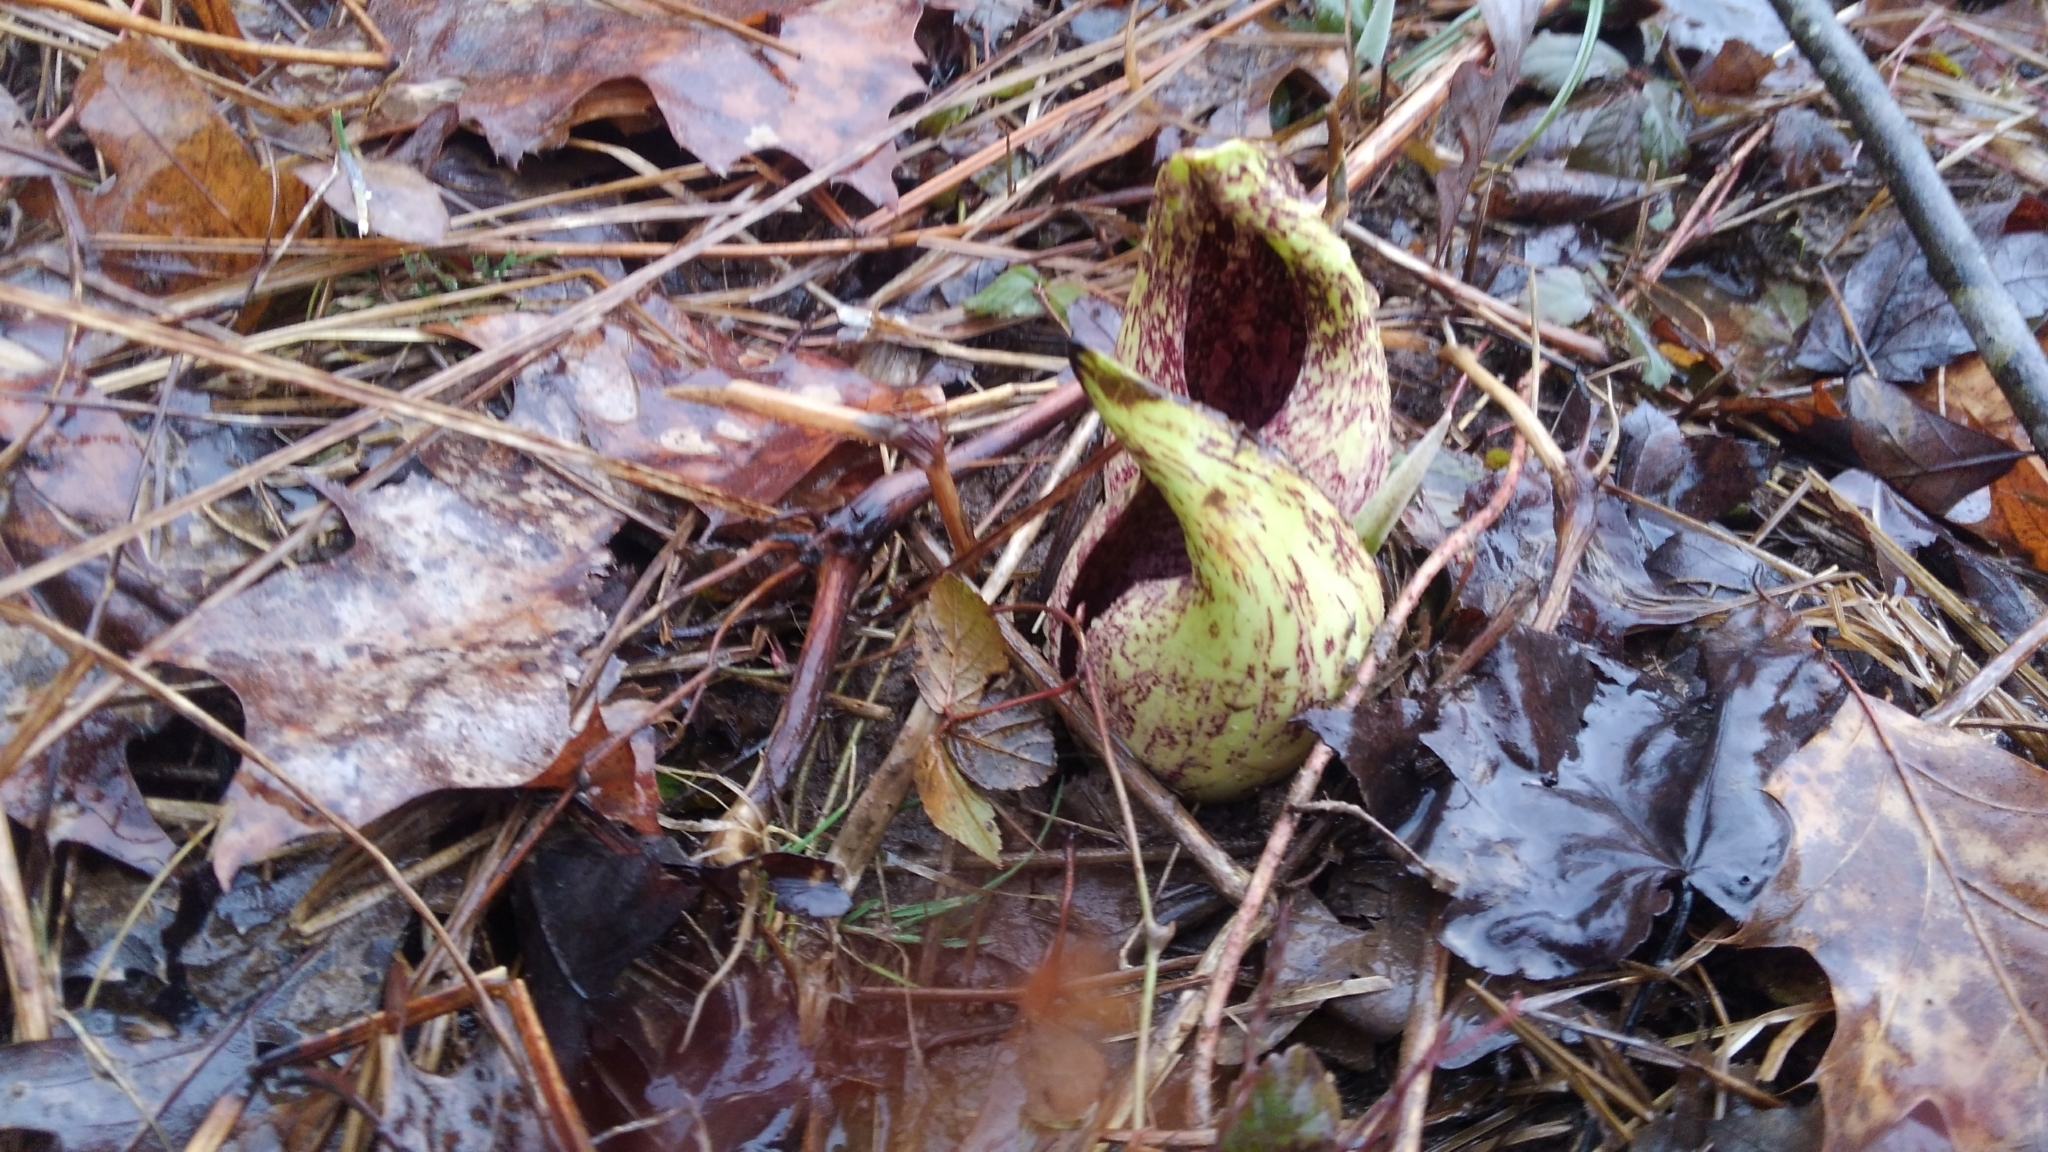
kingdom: Plantae
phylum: Tracheophyta
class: Liliopsida
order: Alismatales
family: Araceae
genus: Symplocarpus
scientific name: Symplocarpus foetidus
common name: Eastern skunk cabbage
